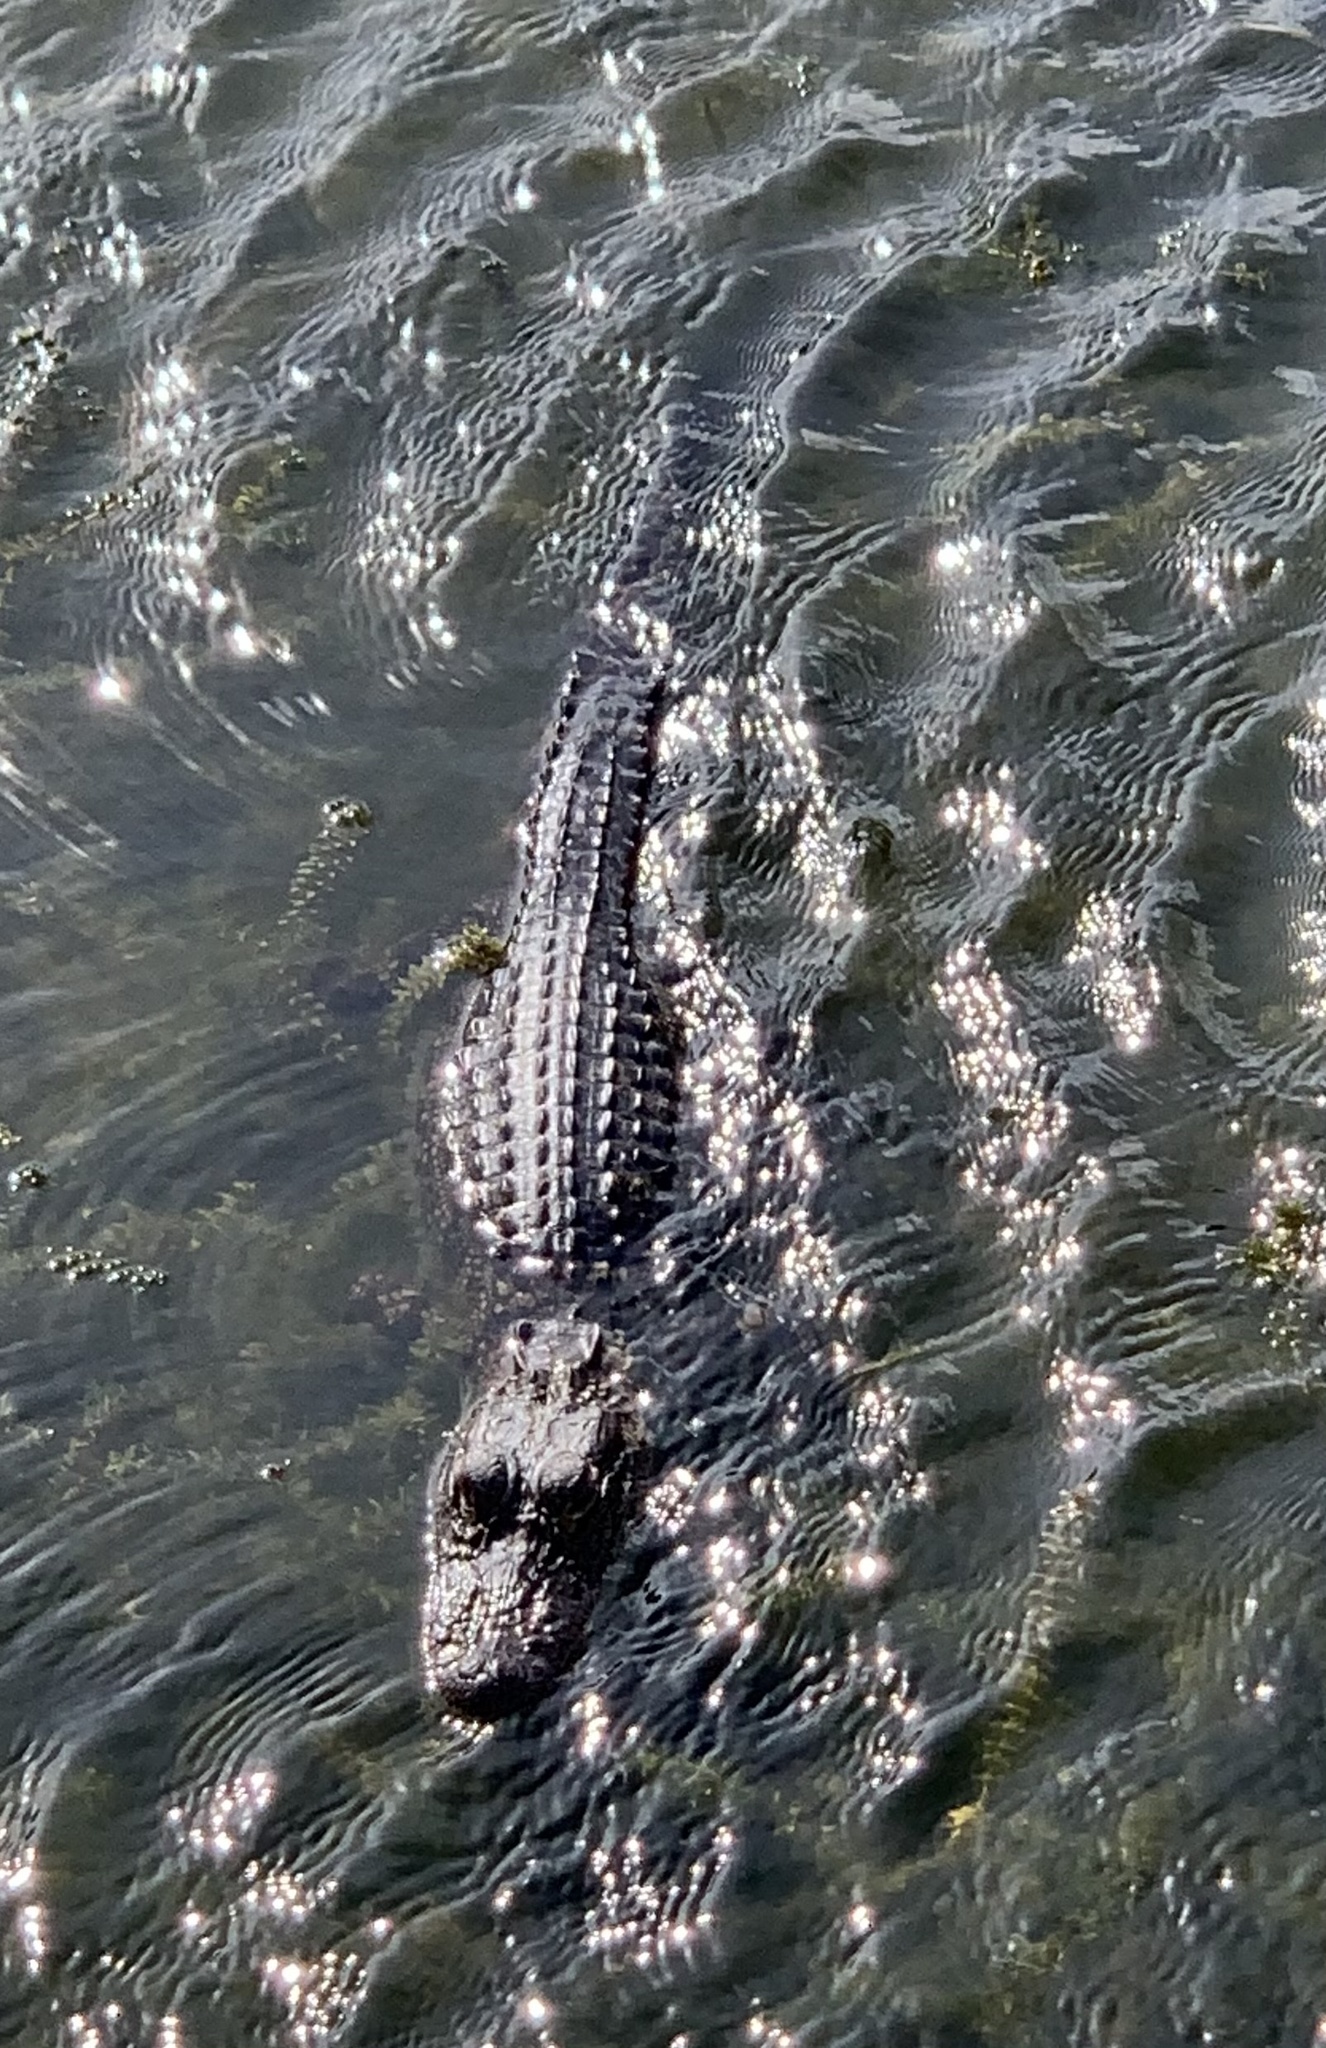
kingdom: Animalia
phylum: Chordata
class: Crocodylia
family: Alligatoridae
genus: Alligator
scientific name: Alligator mississippiensis
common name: American alligator
